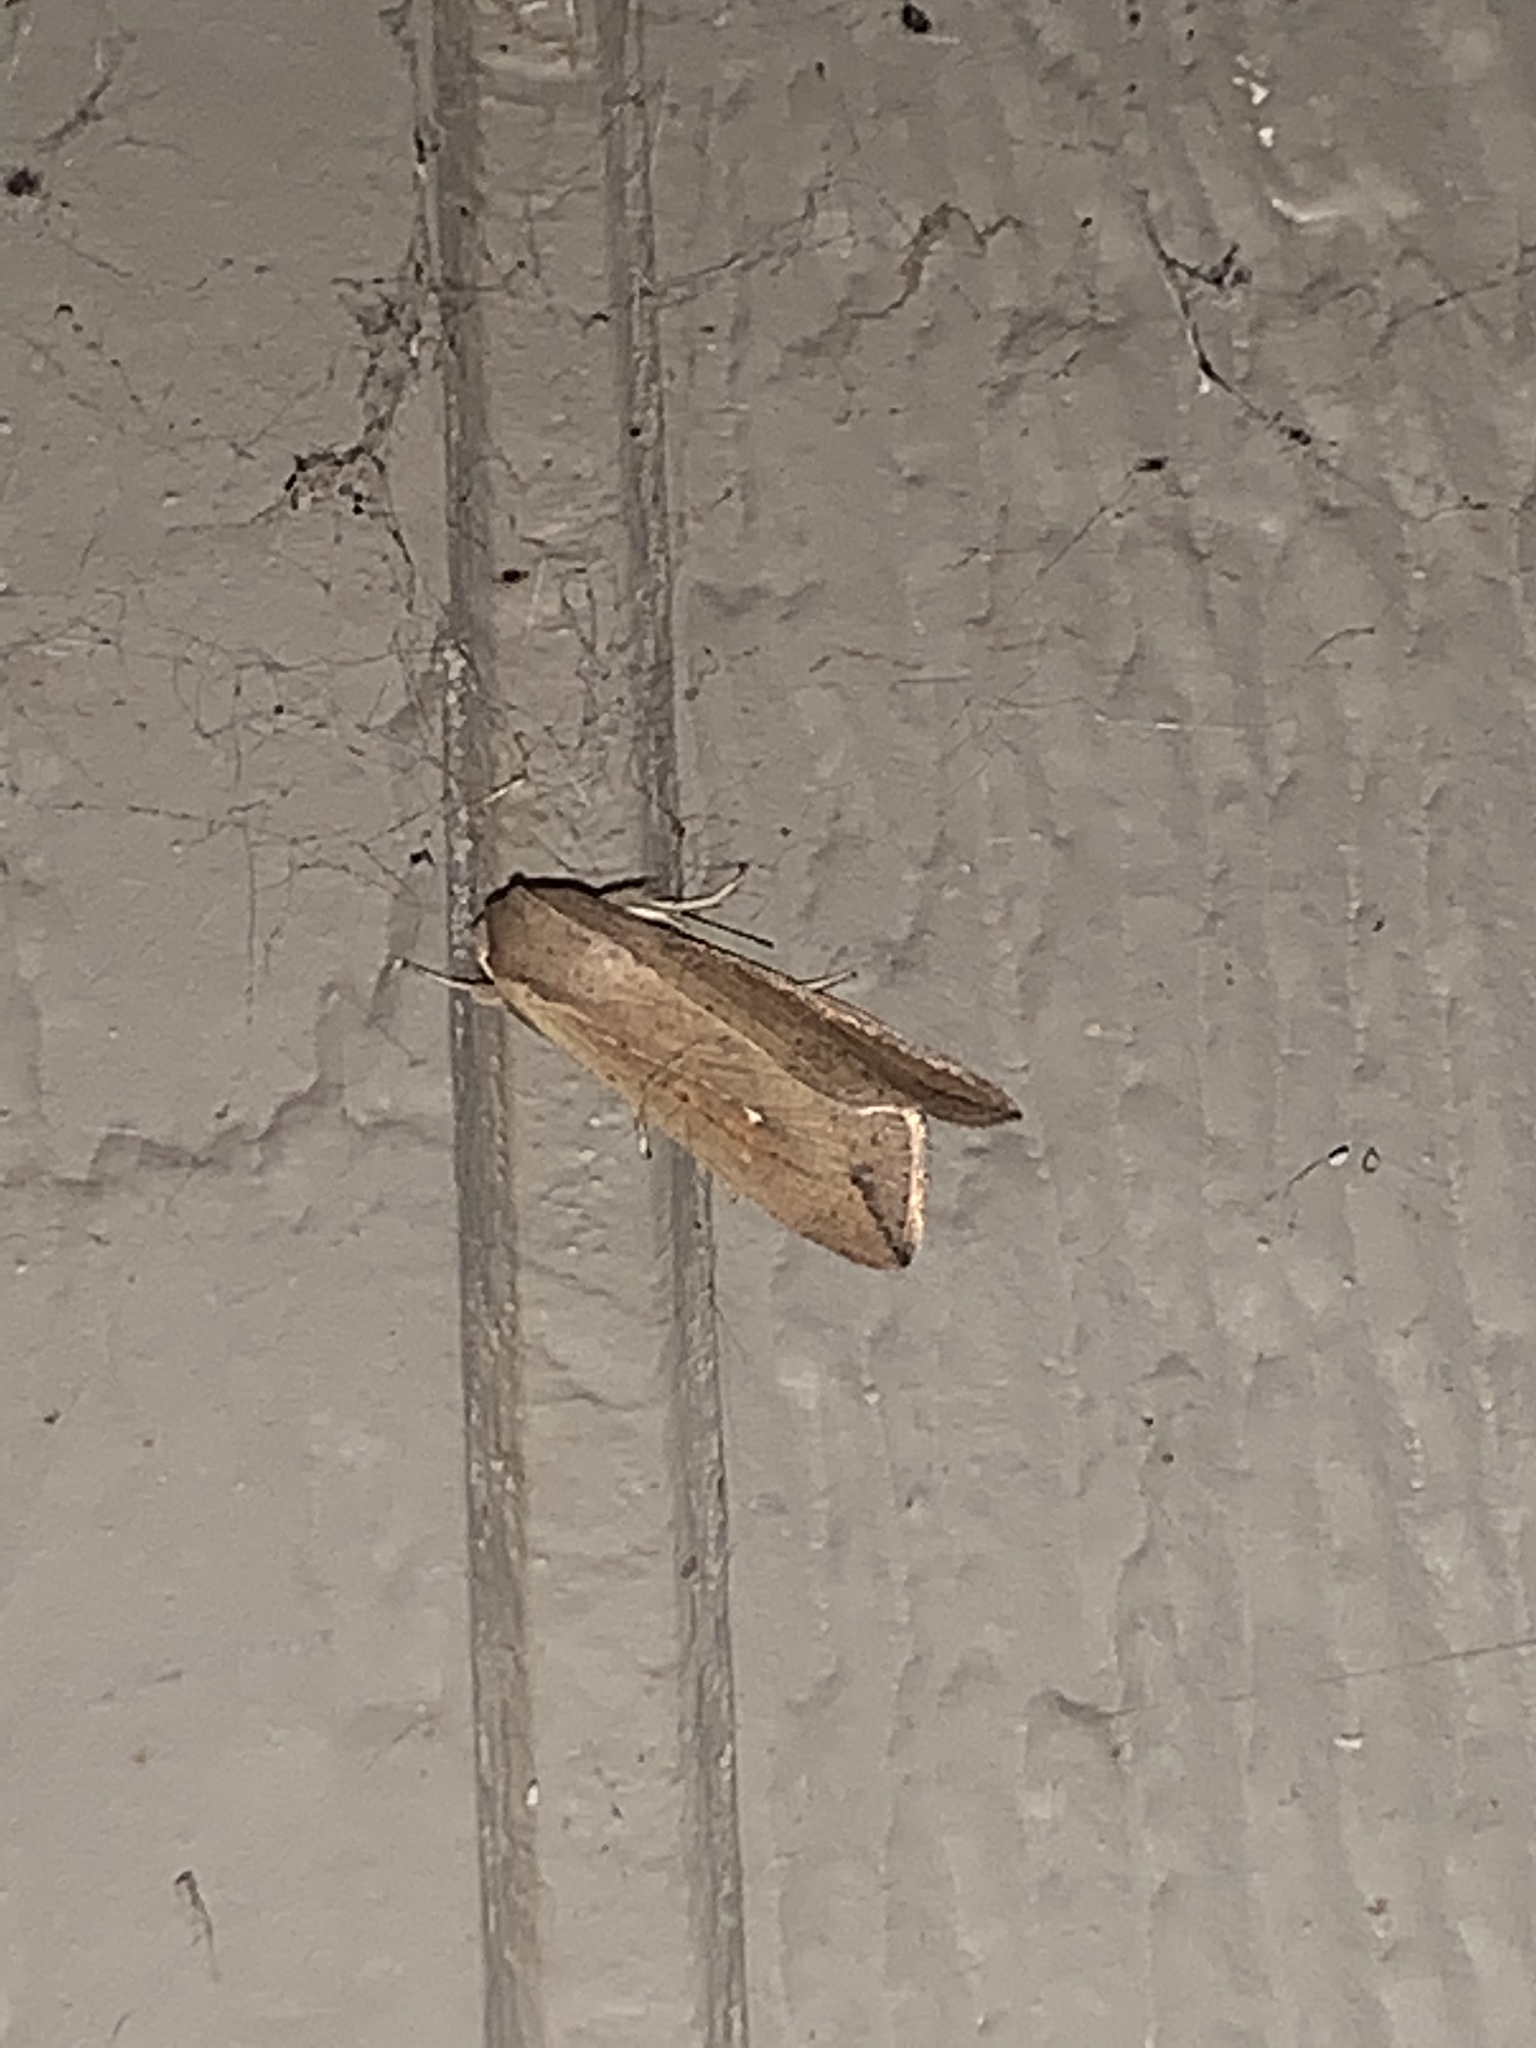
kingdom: Animalia
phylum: Arthropoda
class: Insecta
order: Lepidoptera
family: Noctuidae
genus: Mythimna
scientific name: Mythimna unipuncta
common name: White-speck
